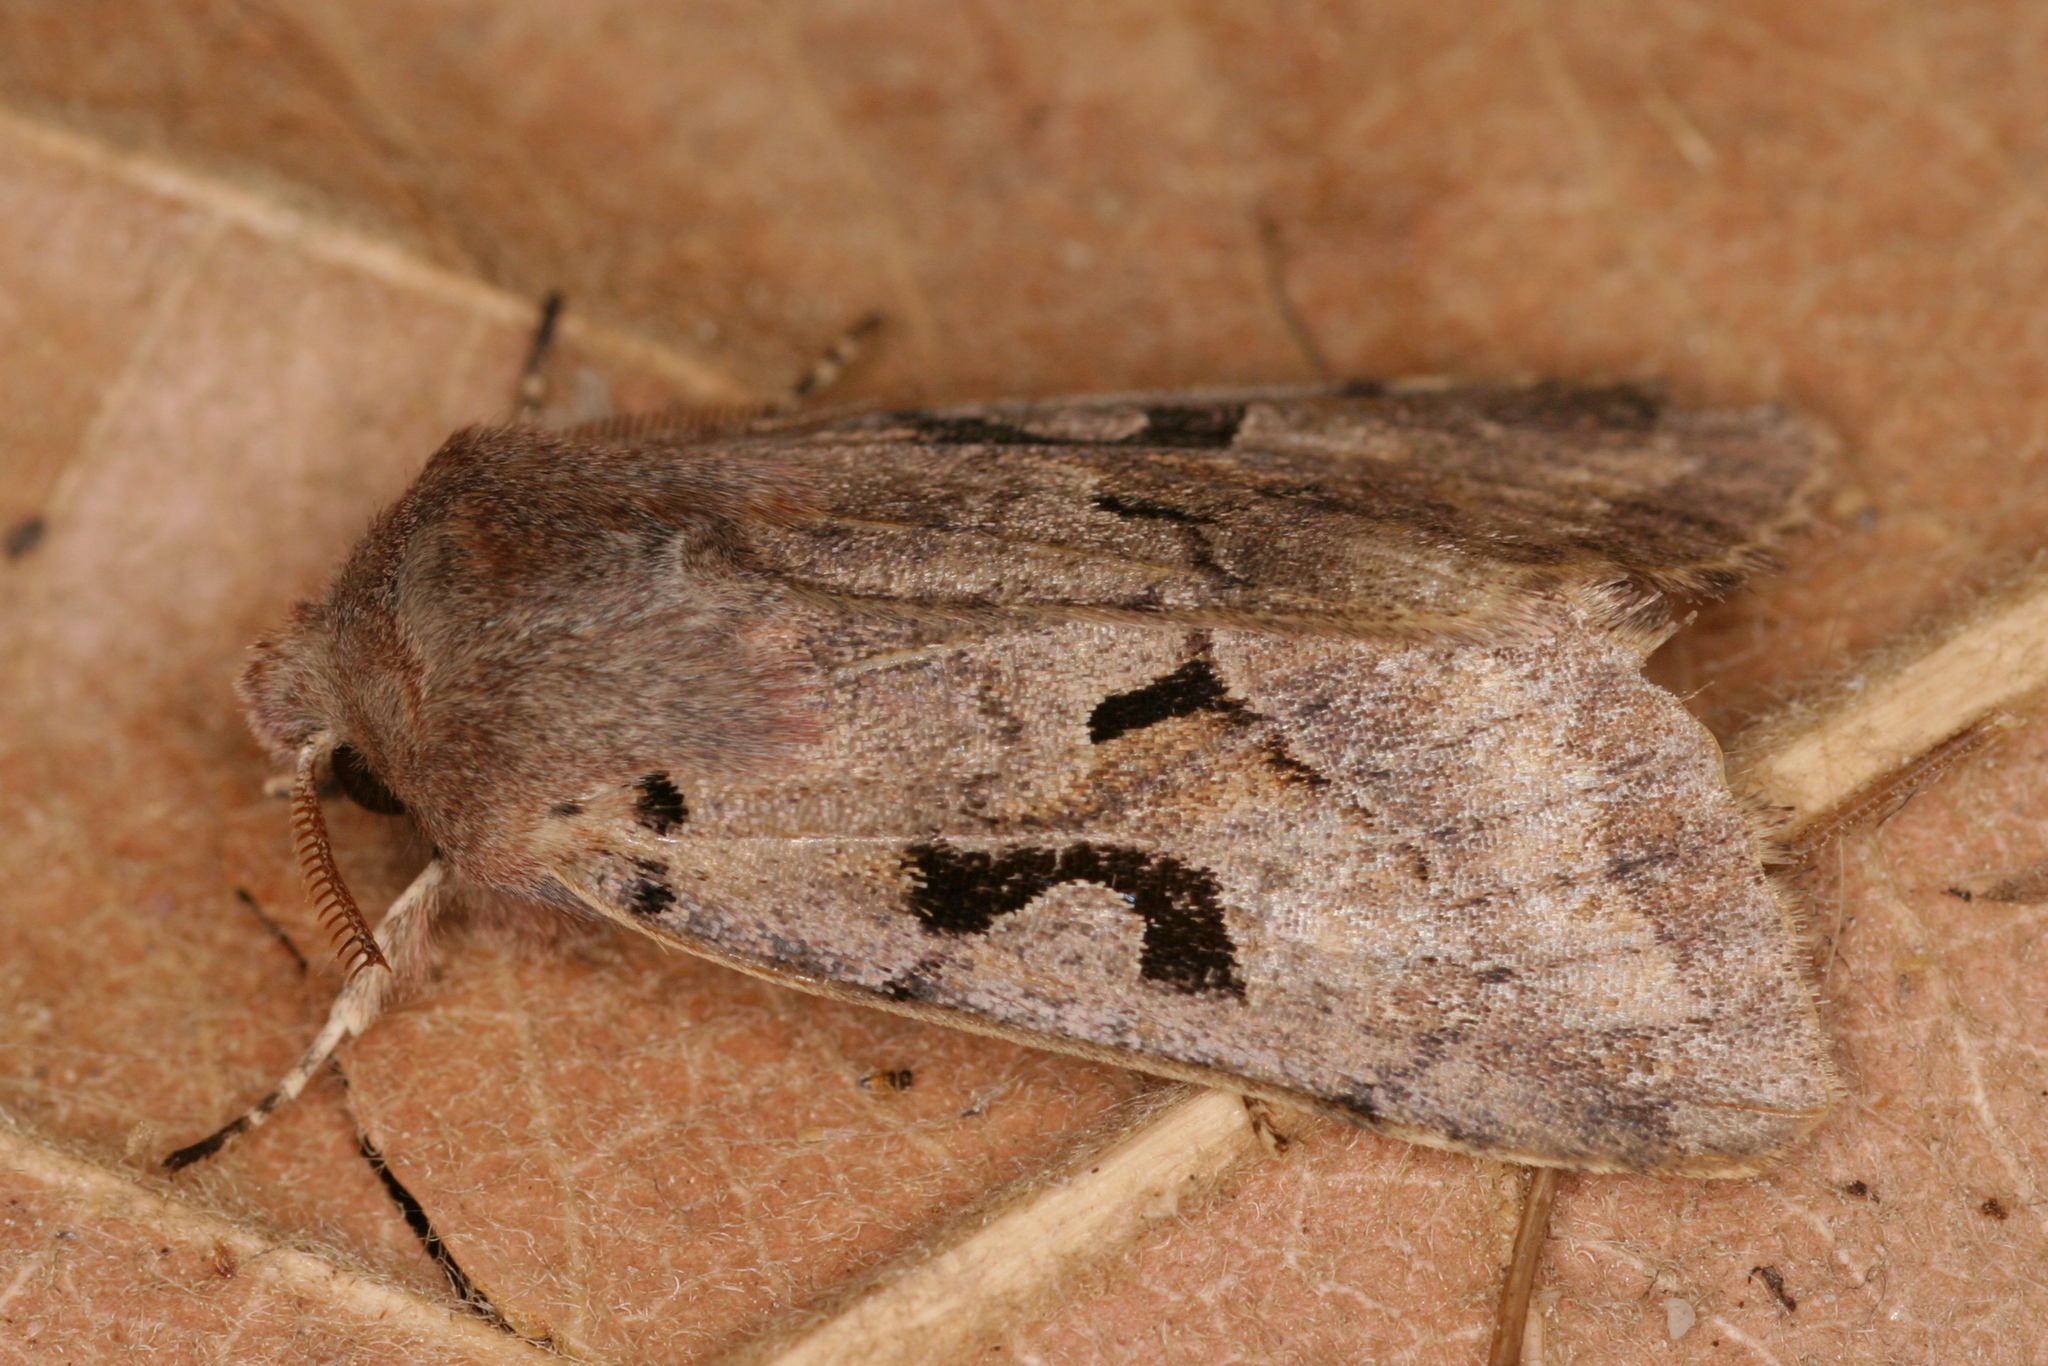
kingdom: Animalia
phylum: Arthropoda
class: Insecta
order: Lepidoptera
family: Noctuidae
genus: Orthosia
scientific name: Orthosia gothica
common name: Hebrew character
